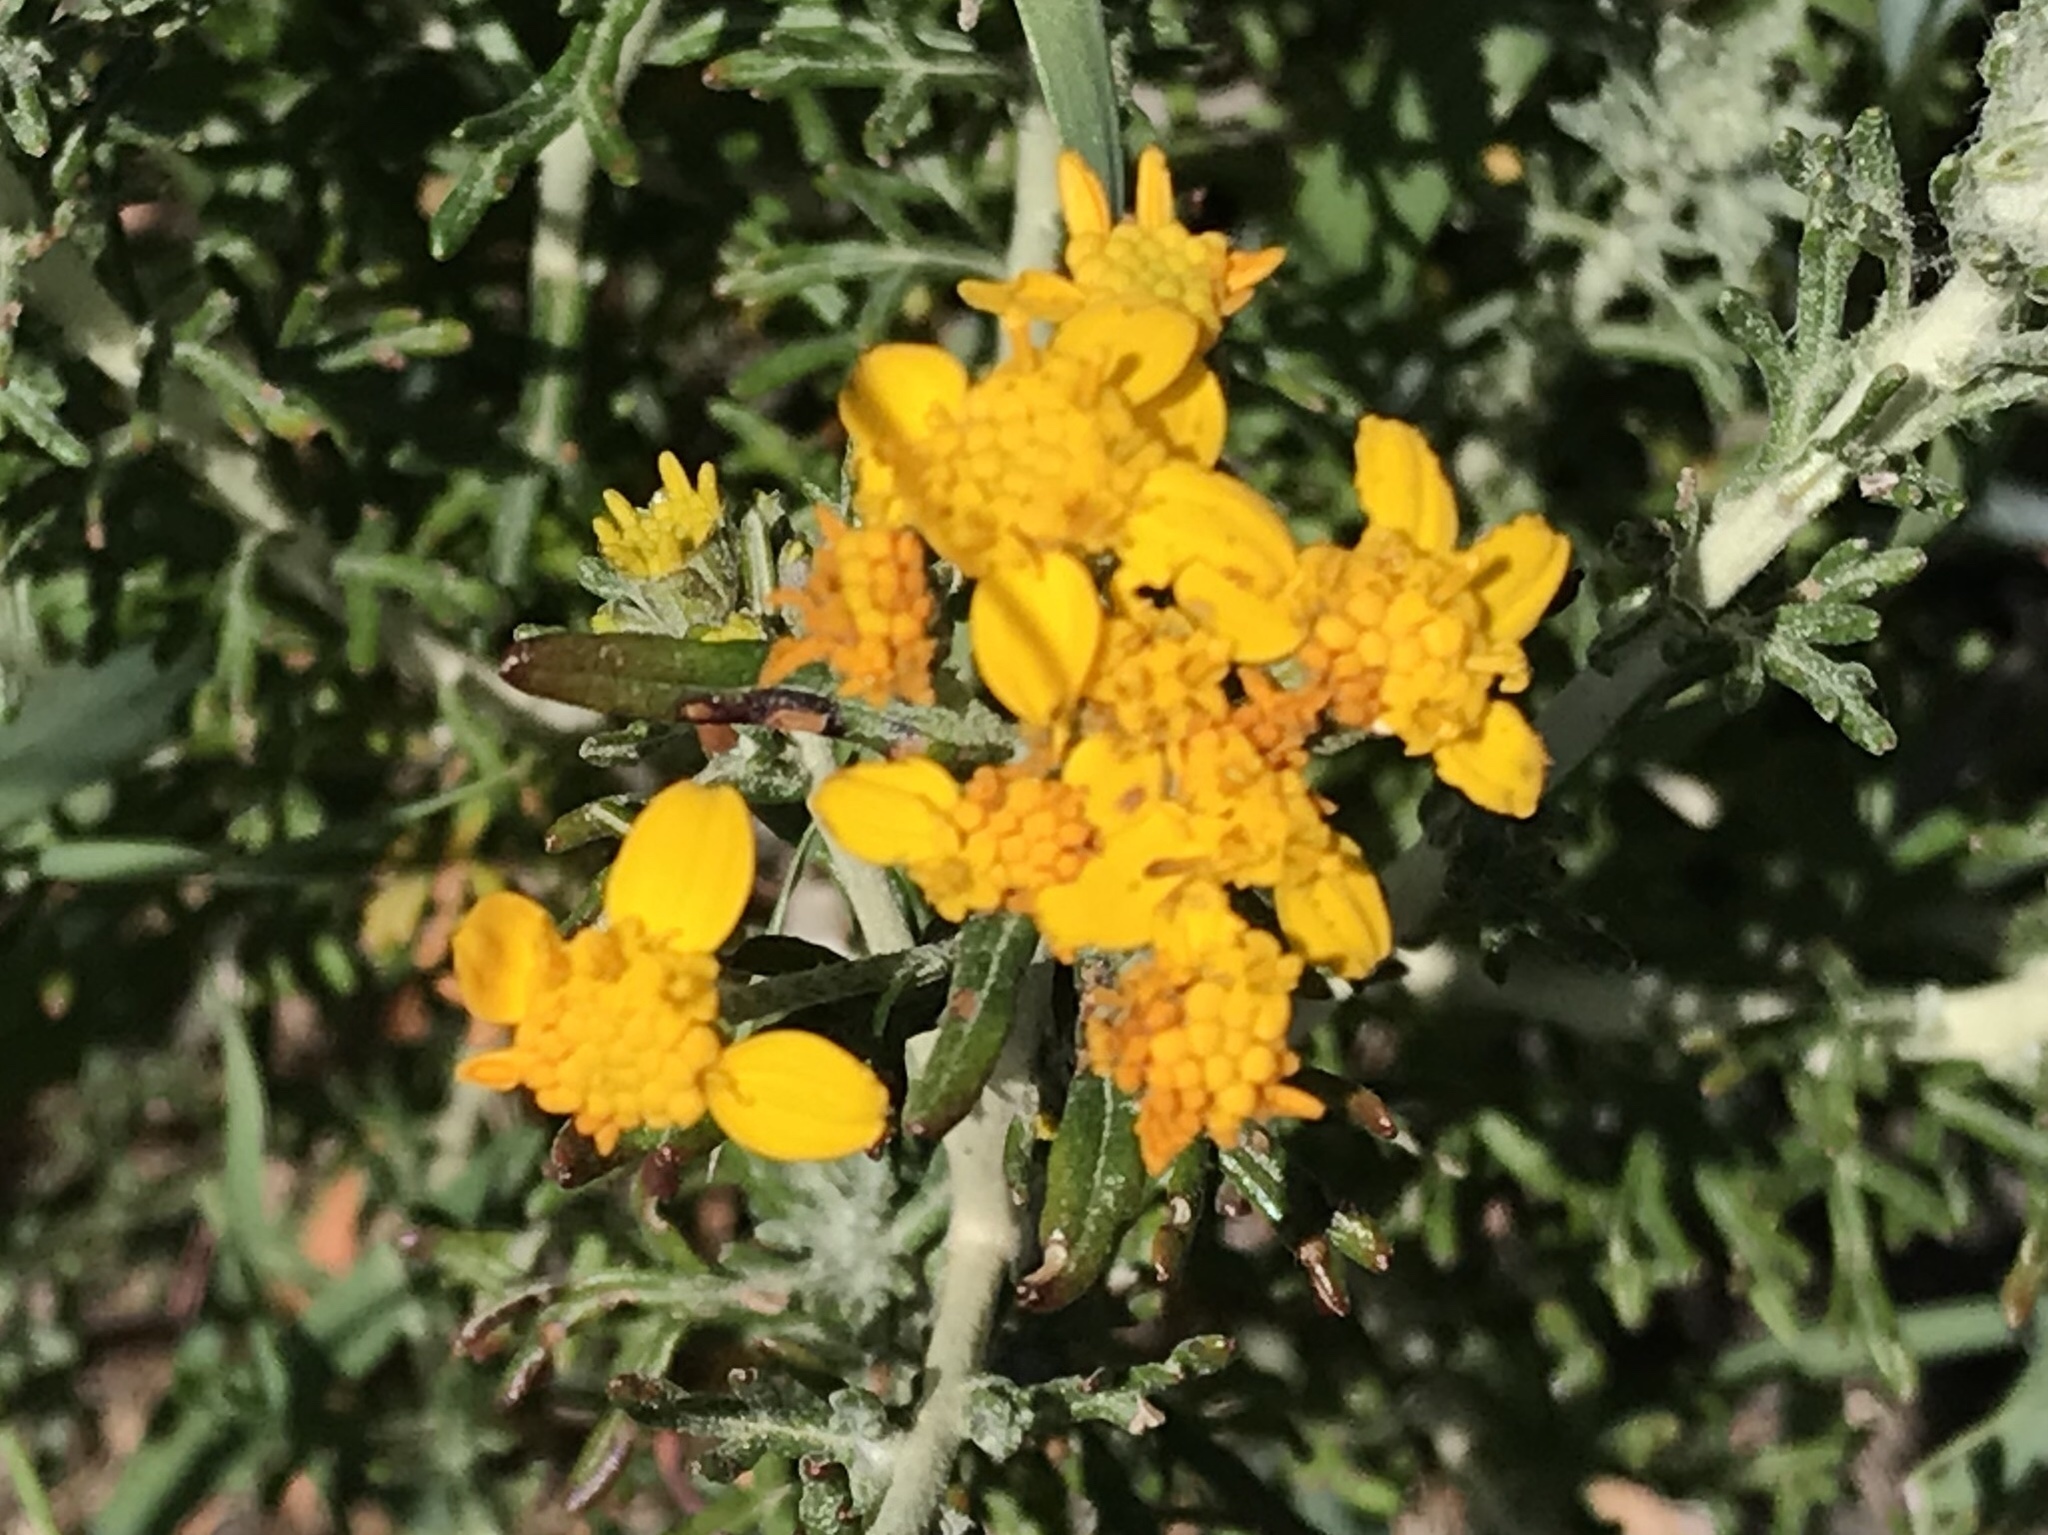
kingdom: Plantae
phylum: Tracheophyta
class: Magnoliopsida
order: Asterales
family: Asteraceae
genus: Eriophyllum
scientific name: Eriophyllum confertiflorum
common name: Golden-yarrow
